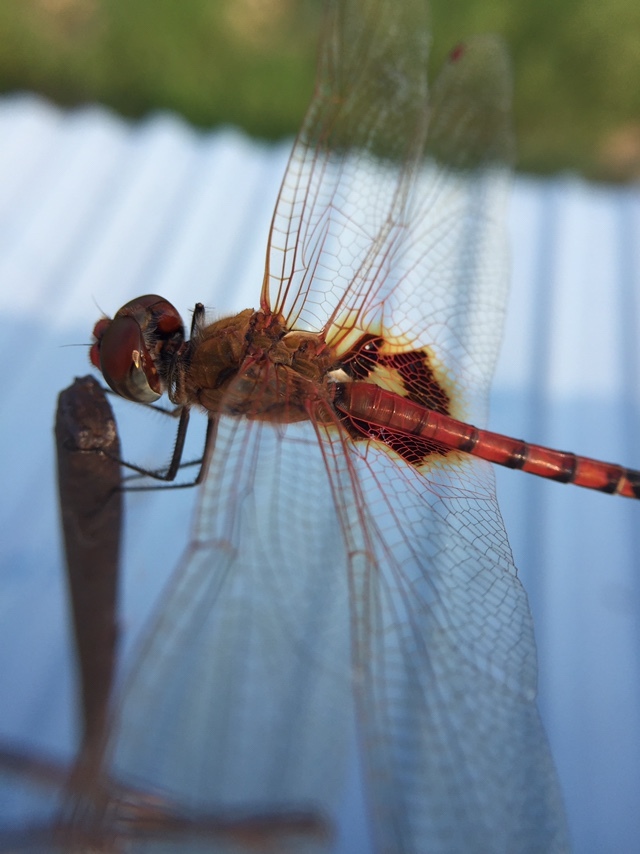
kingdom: Animalia
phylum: Arthropoda
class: Insecta
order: Odonata
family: Libellulidae
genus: Tramea
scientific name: Tramea basilaris
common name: Keyhole glider
